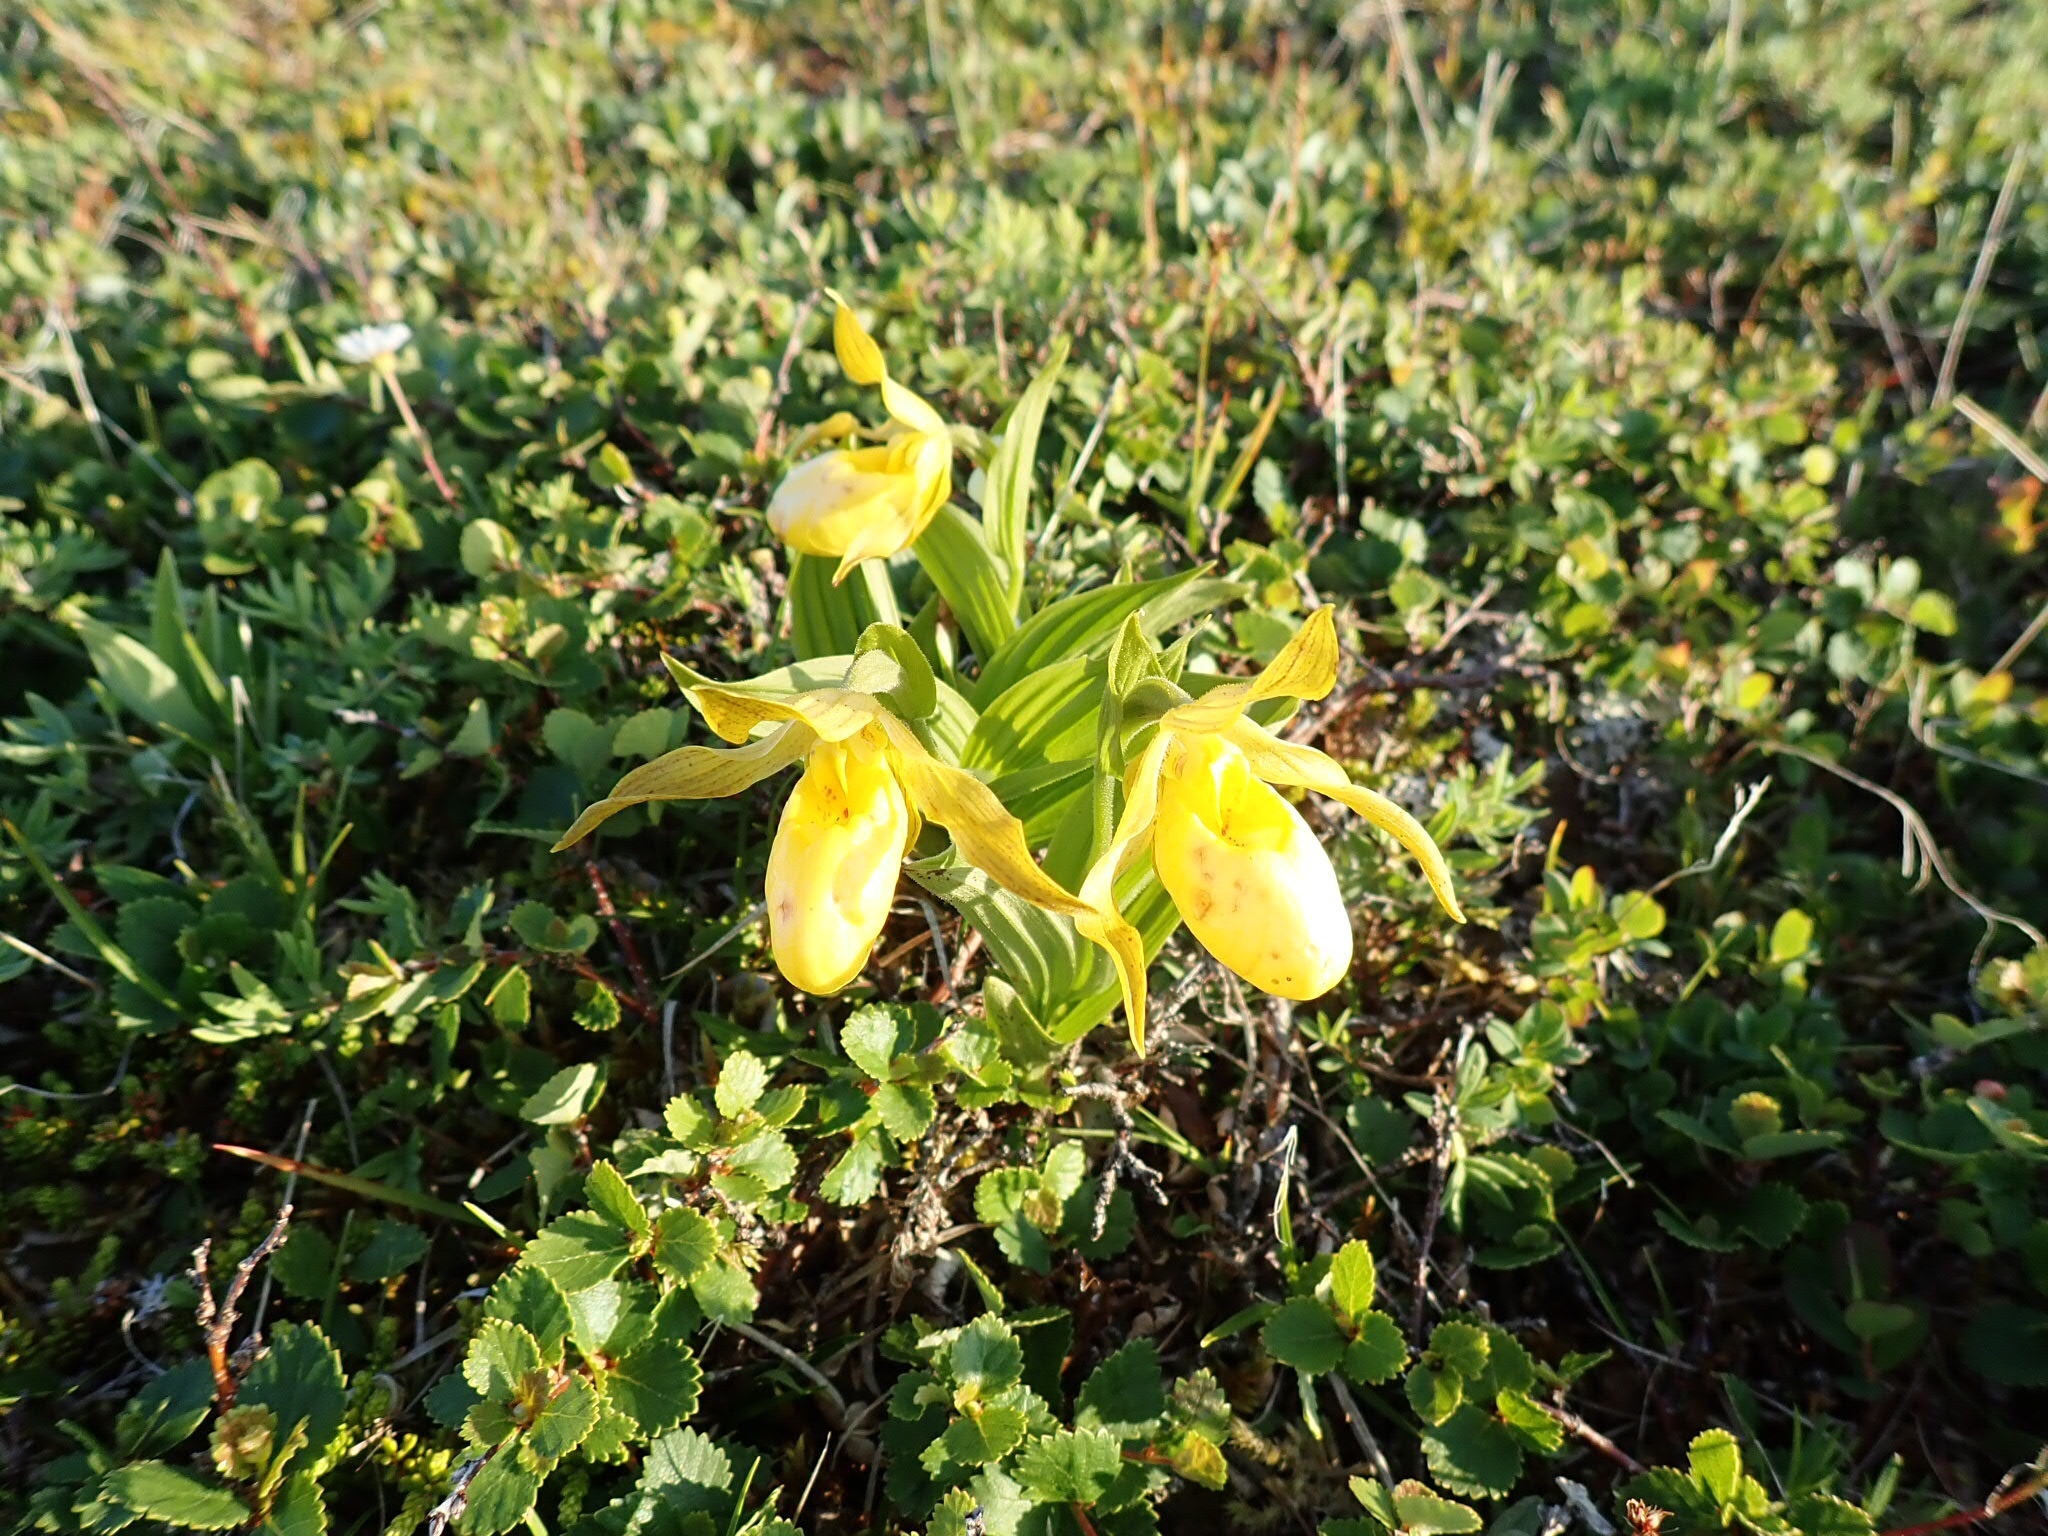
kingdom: Plantae
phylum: Tracheophyta
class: Liliopsida
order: Asparagales
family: Orchidaceae
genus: Cypripedium
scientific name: Cypripedium parviflorum
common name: American yellow lady's-slipper
